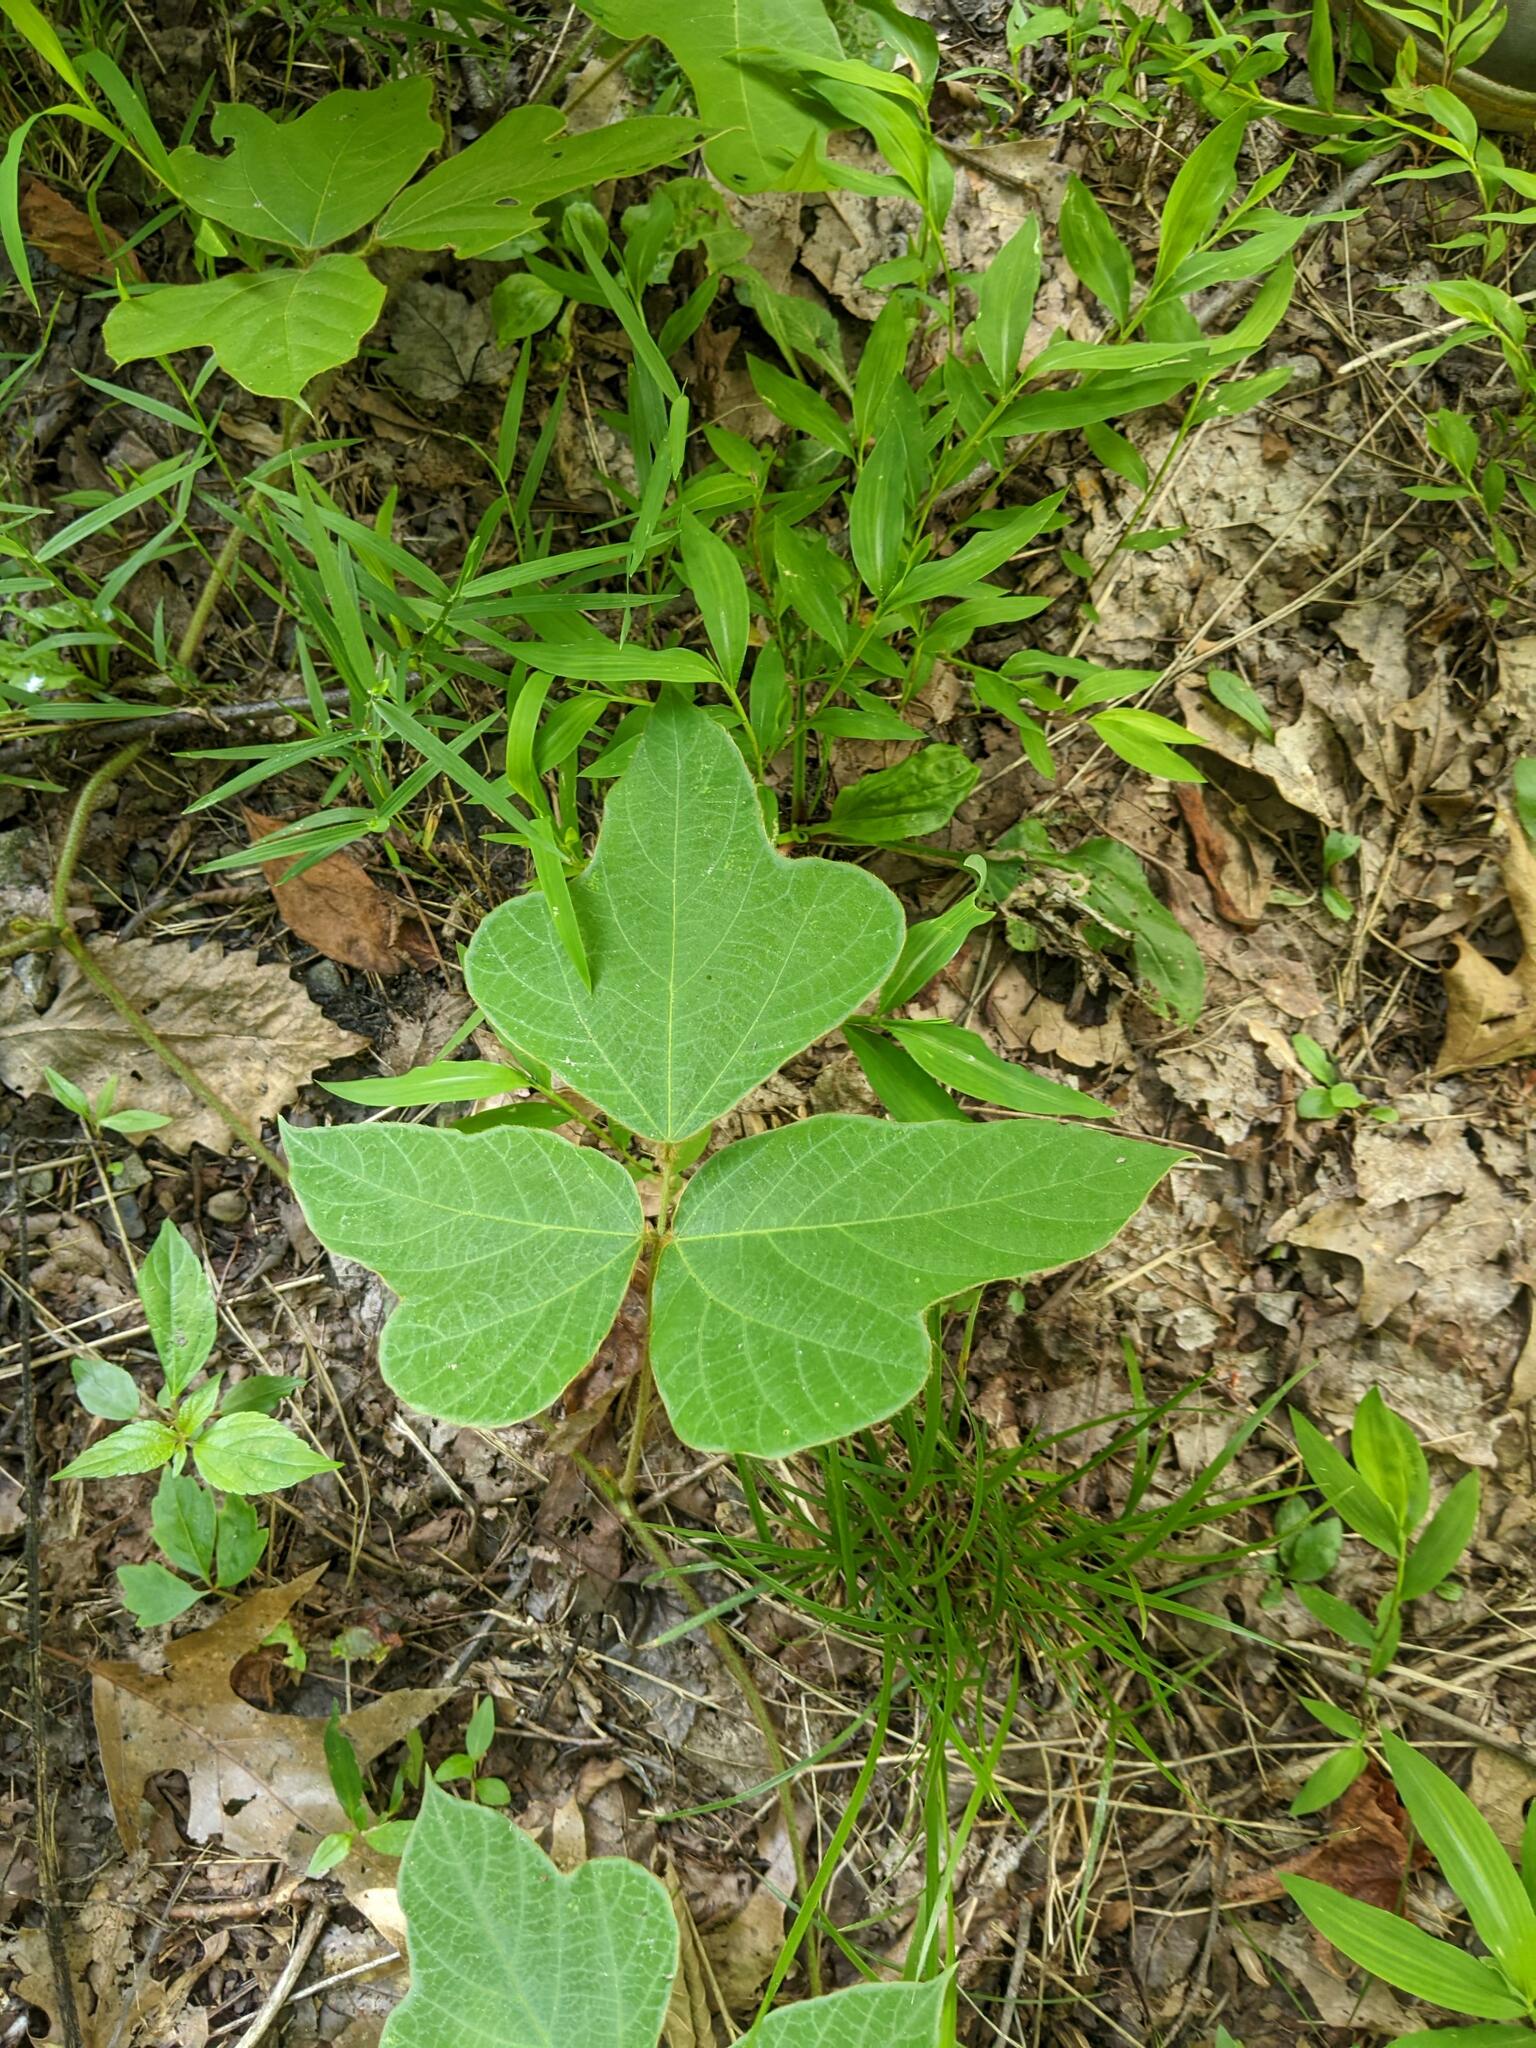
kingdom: Plantae
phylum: Tracheophyta
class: Magnoliopsida
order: Fabales
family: Fabaceae
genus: Pueraria
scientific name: Pueraria montana
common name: Kudzu
